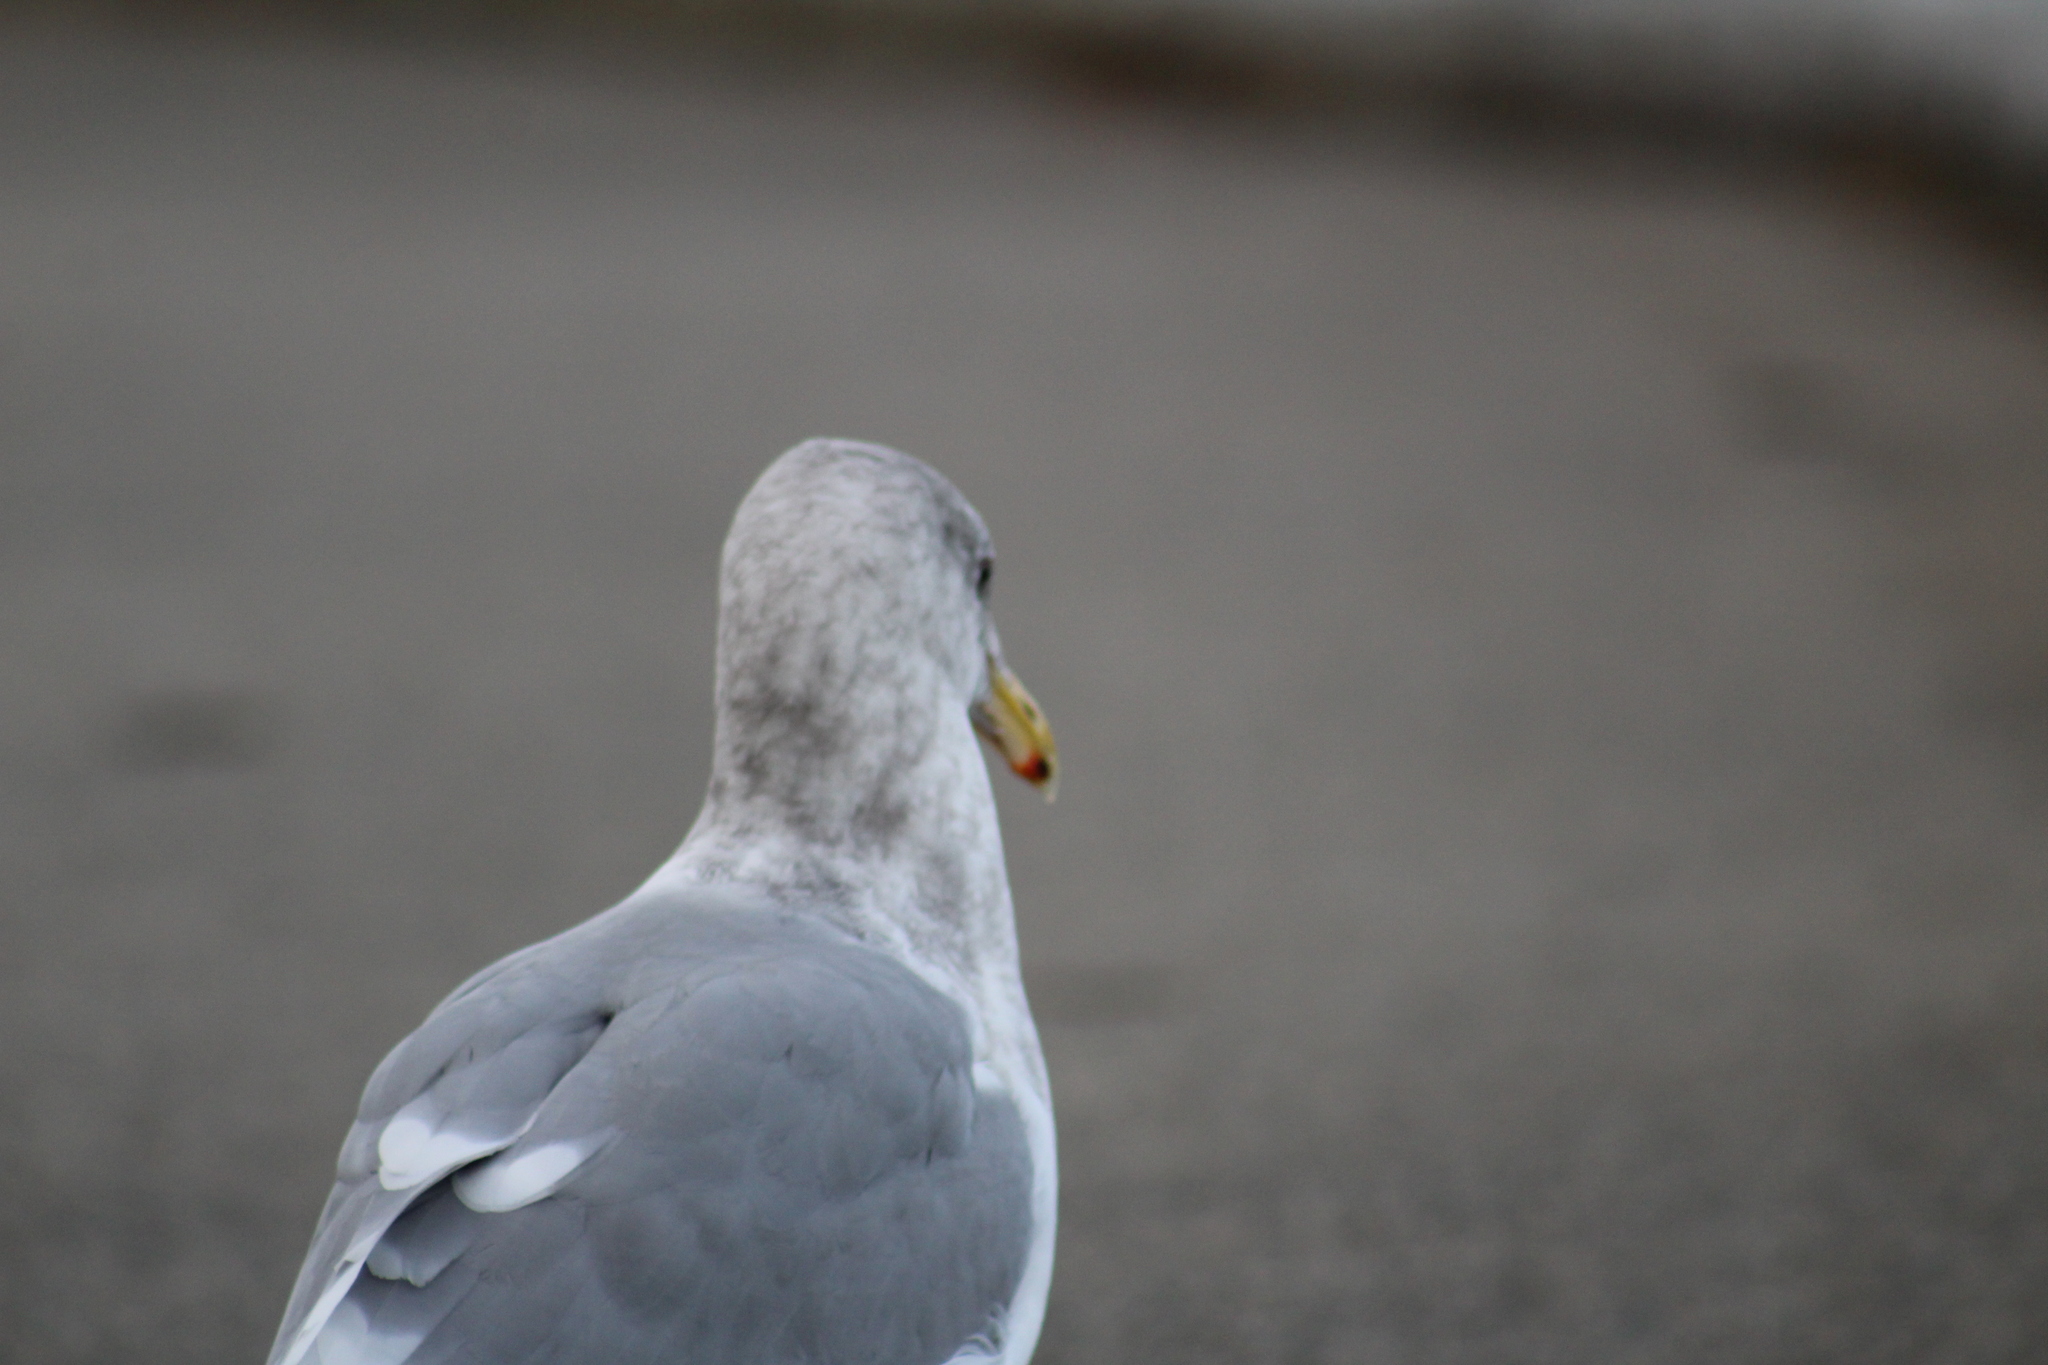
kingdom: Animalia
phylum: Chordata
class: Aves
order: Charadriiformes
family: Laridae
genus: Larus
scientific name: Larus glaucescens
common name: Glaucous-winged gull
